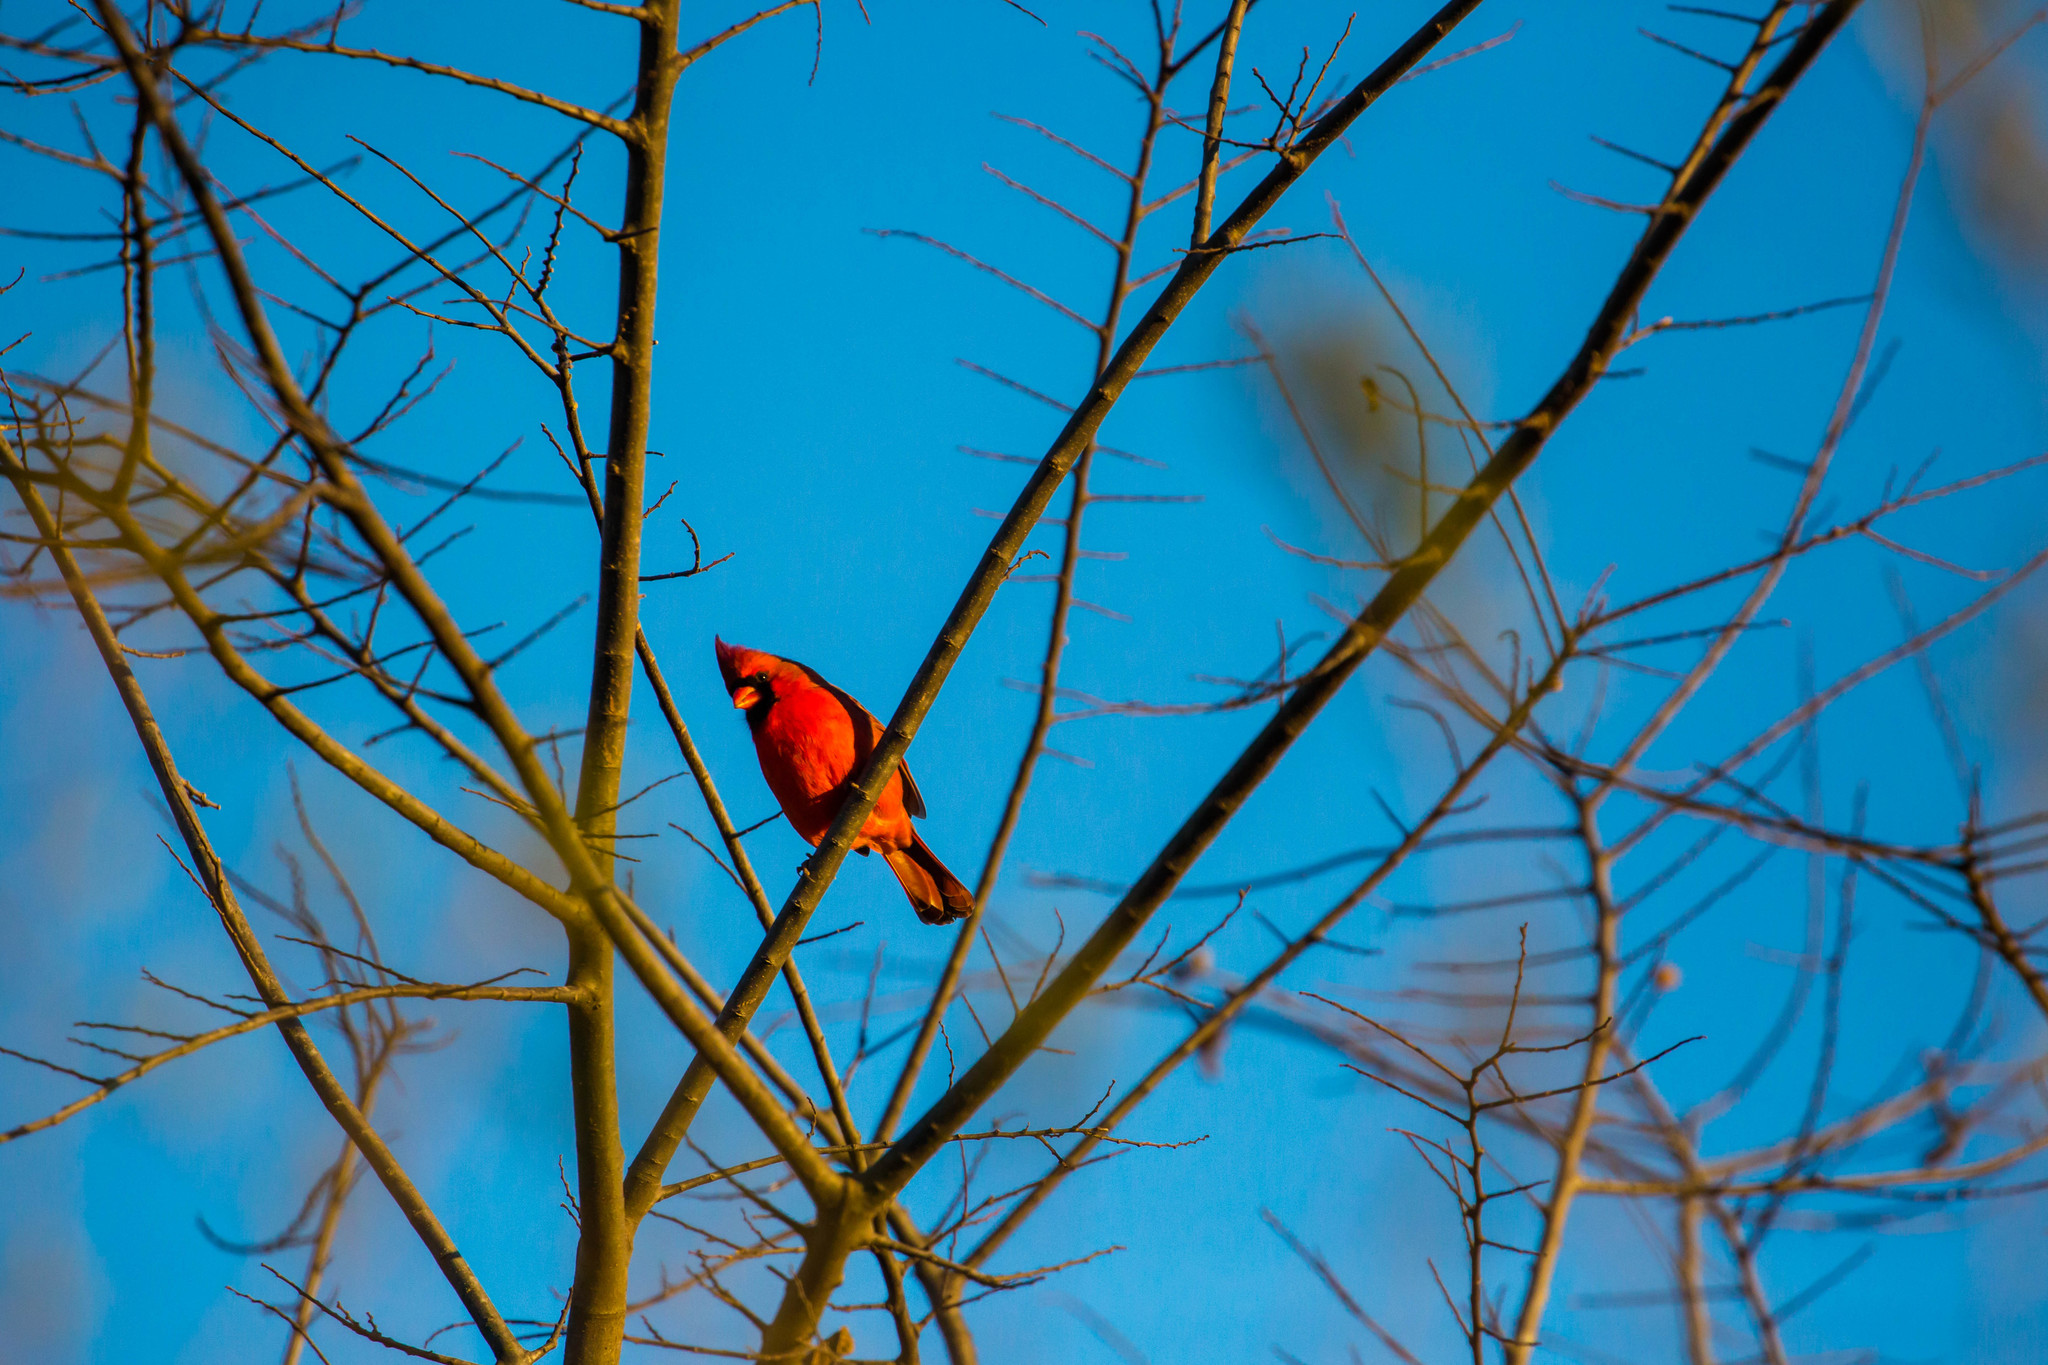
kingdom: Animalia
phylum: Chordata
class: Aves
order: Passeriformes
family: Cardinalidae
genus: Cardinalis
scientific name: Cardinalis cardinalis
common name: Northern cardinal
